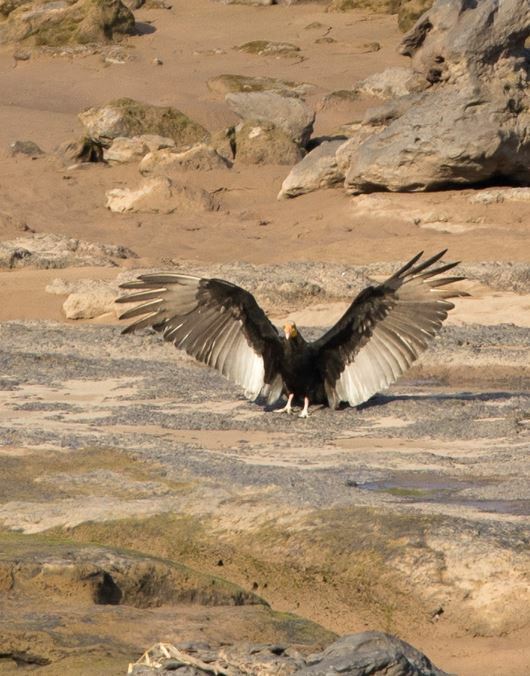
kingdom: Animalia
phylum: Chordata
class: Aves
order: Accipitriformes
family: Cathartidae
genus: Cathartes
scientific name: Cathartes melambrotus
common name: Greater yellow-headed vulture
